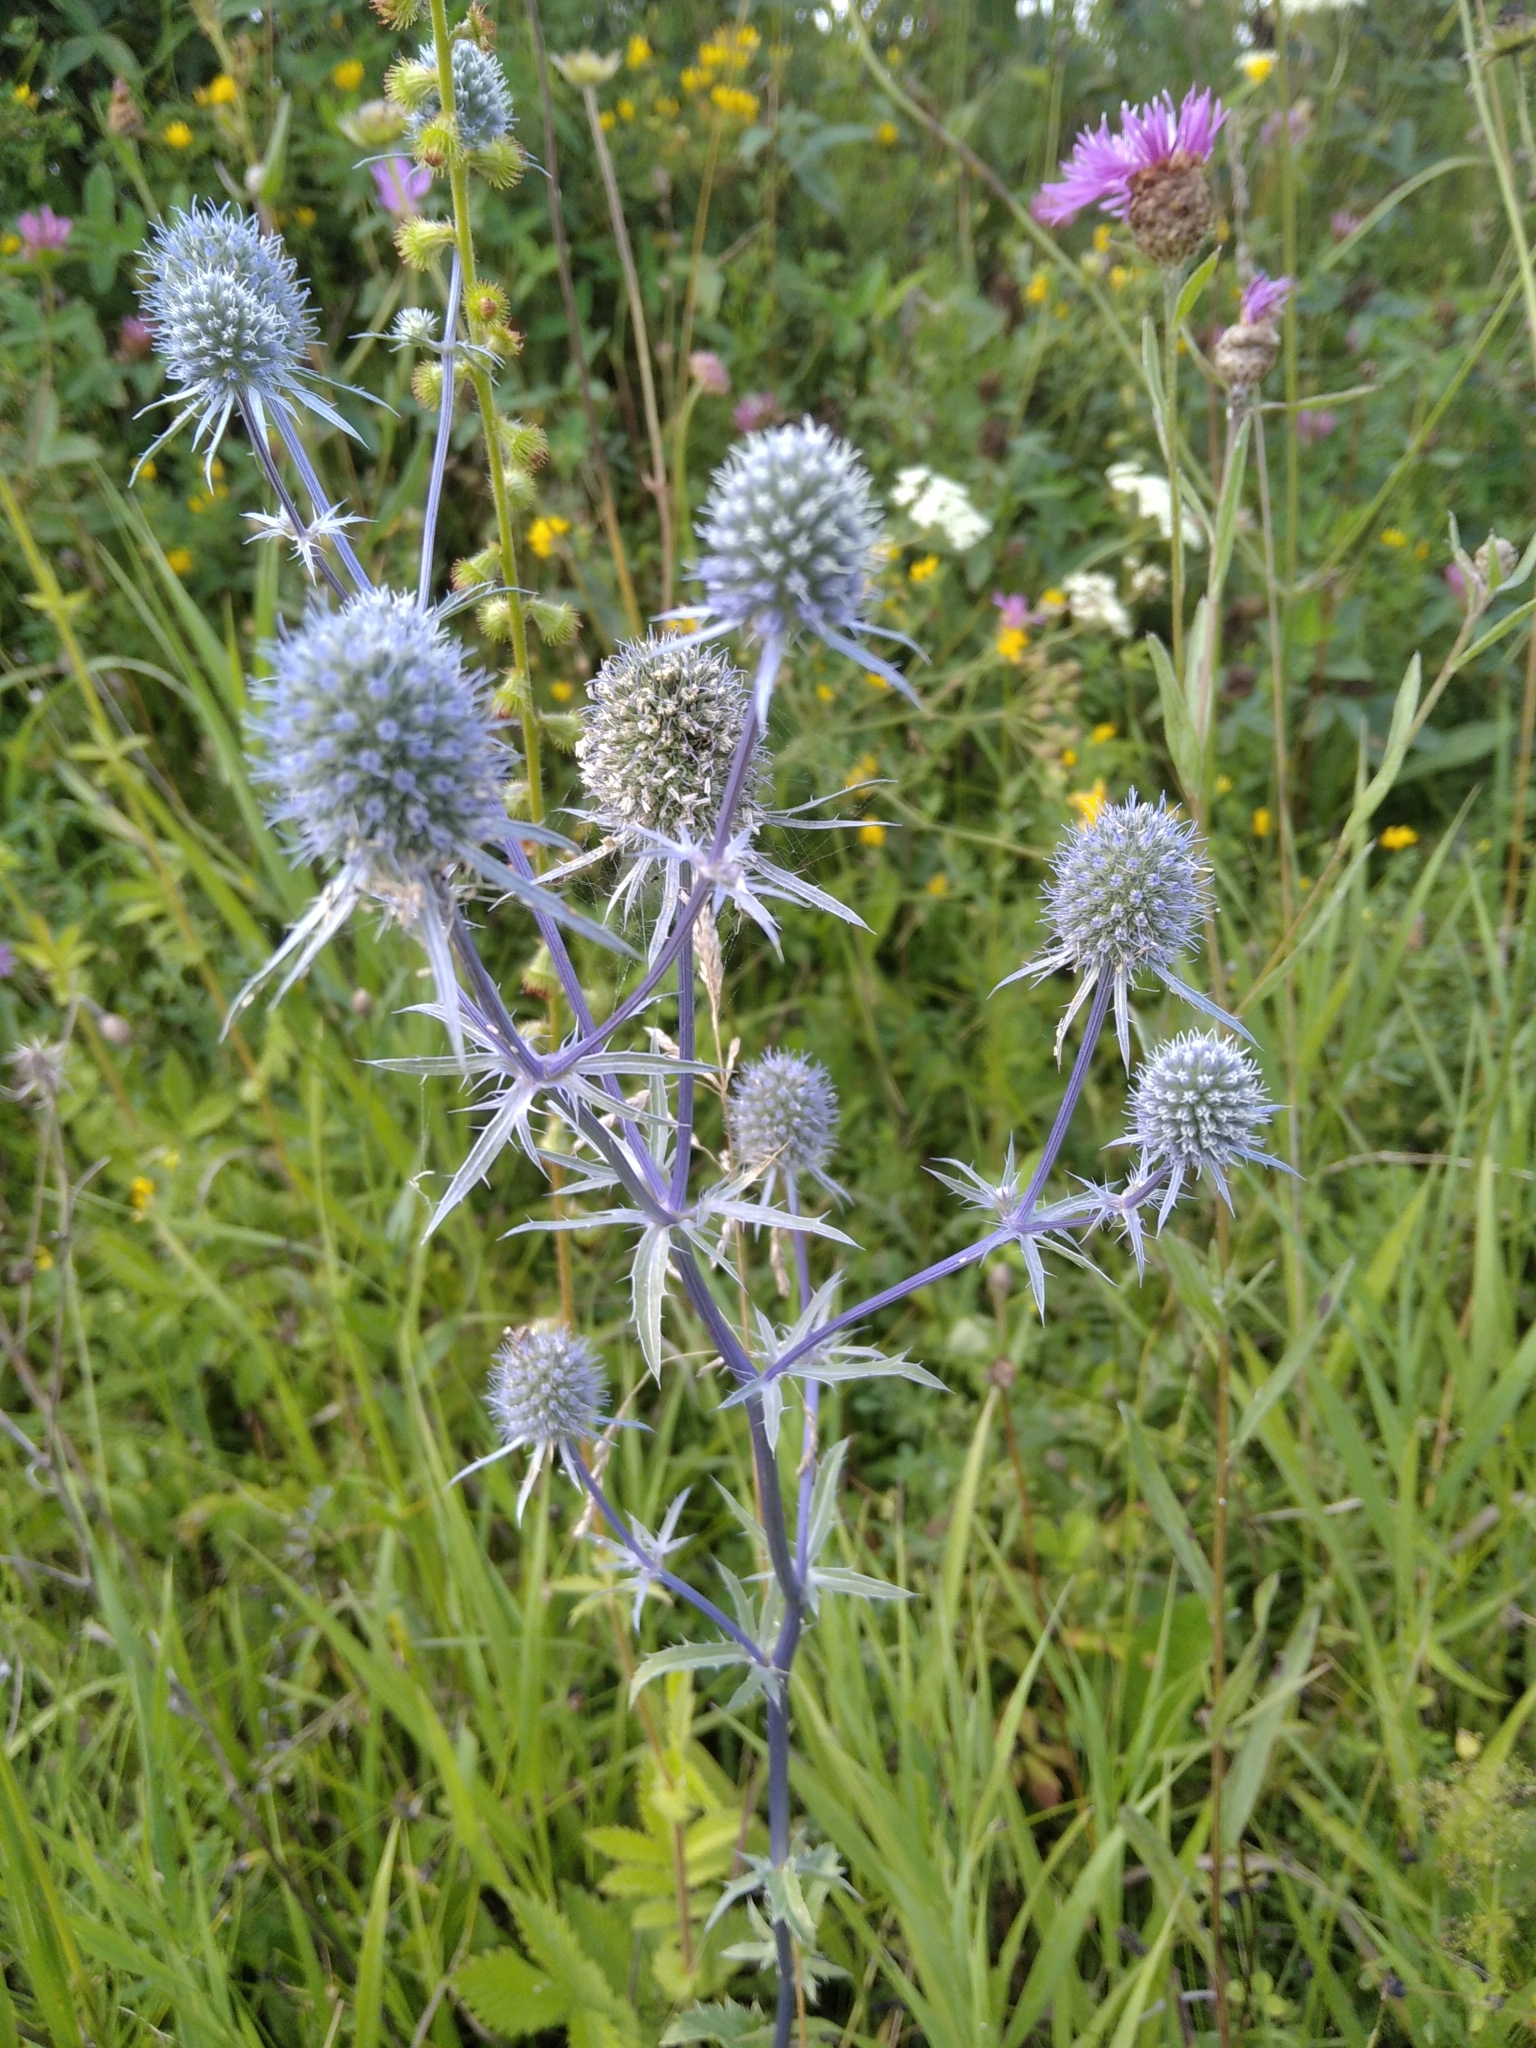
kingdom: Plantae
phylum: Tracheophyta
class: Magnoliopsida
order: Apiales
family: Apiaceae
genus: Eryngium
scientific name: Eryngium planum
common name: Blue eryngo
